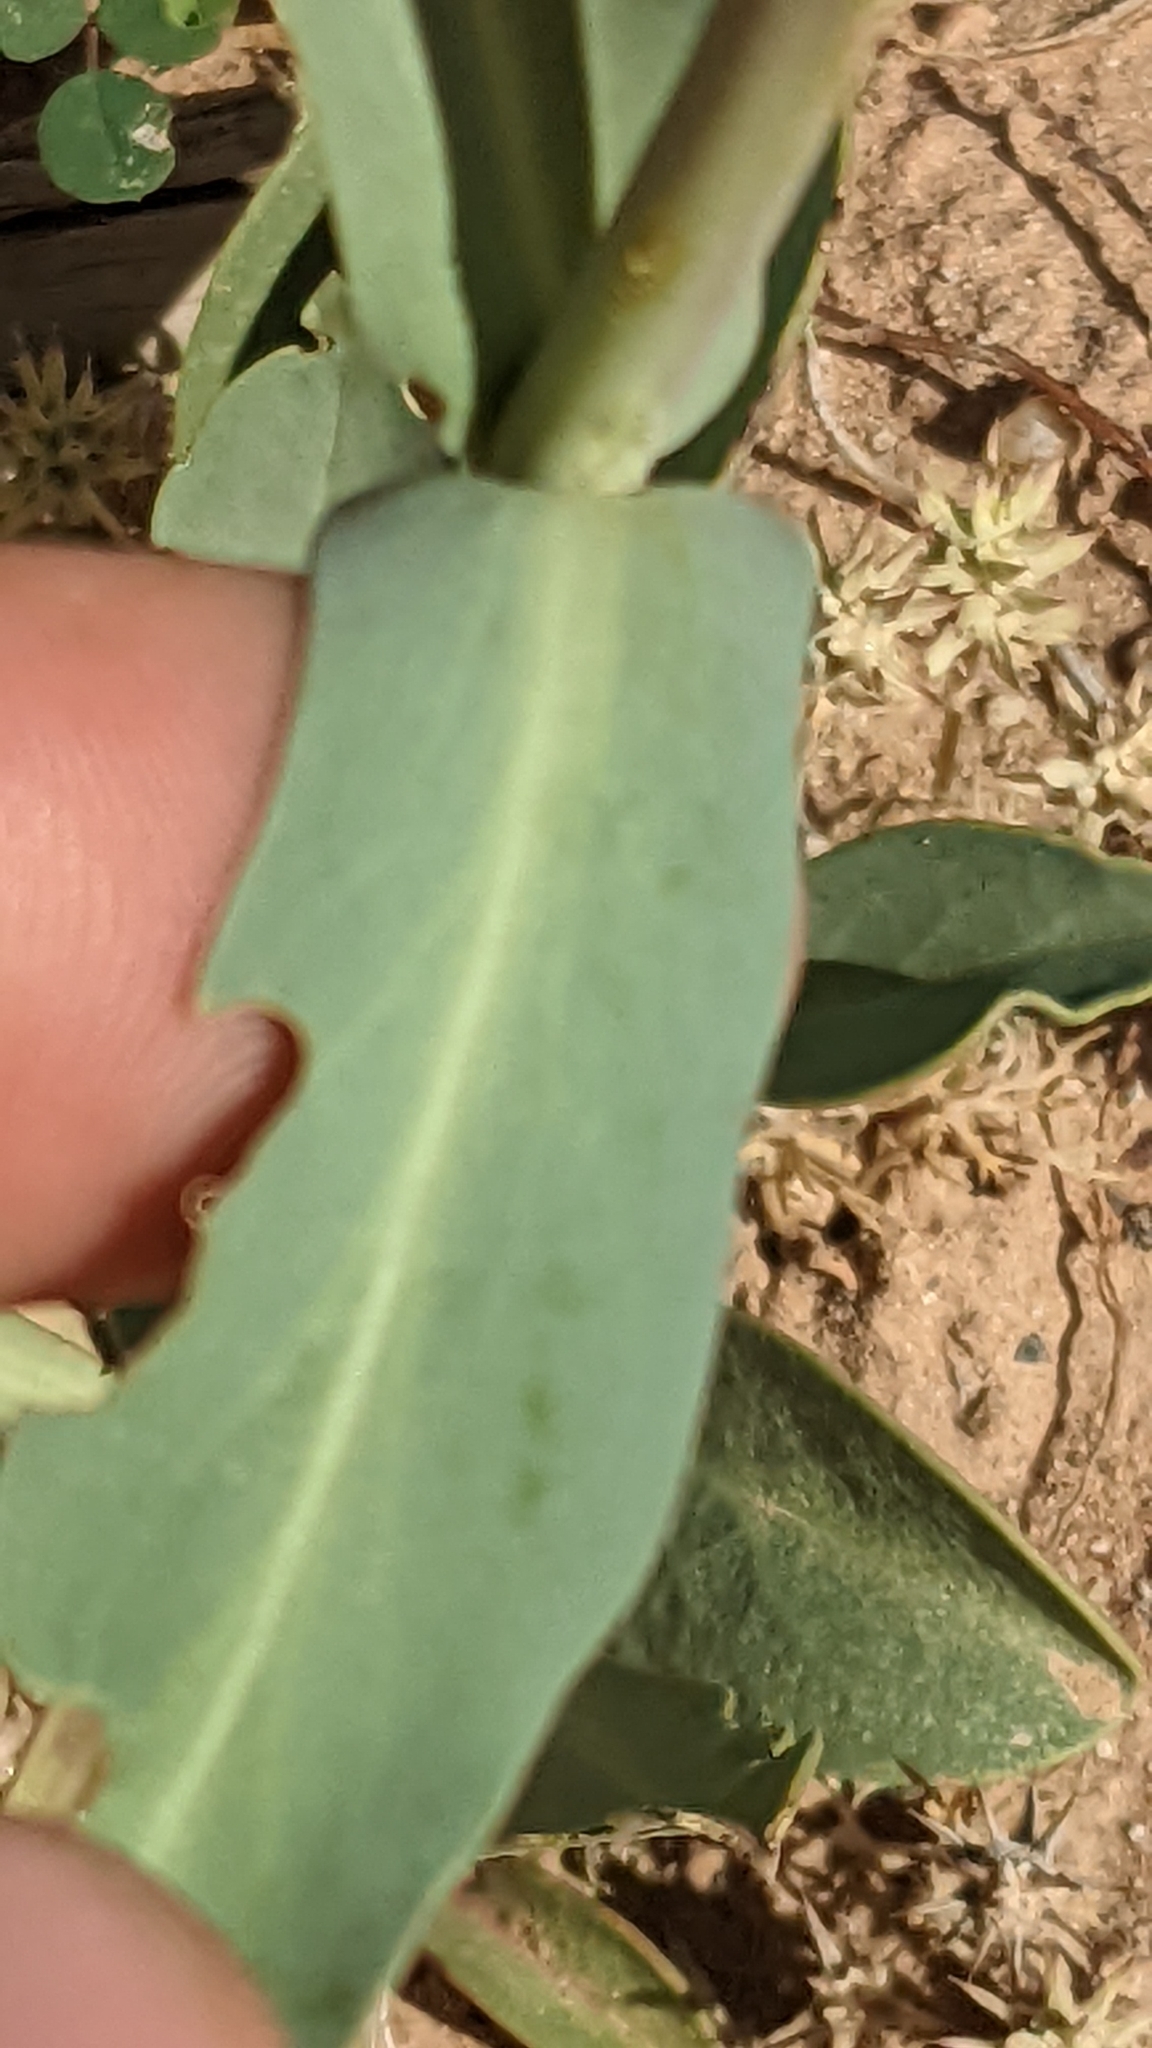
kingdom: Plantae
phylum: Tracheophyta
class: Magnoliopsida
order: Lamiales
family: Plantaginaceae
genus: Penstemon
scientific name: Penstemon pachyphyllus
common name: Thick-leaf penstemon
